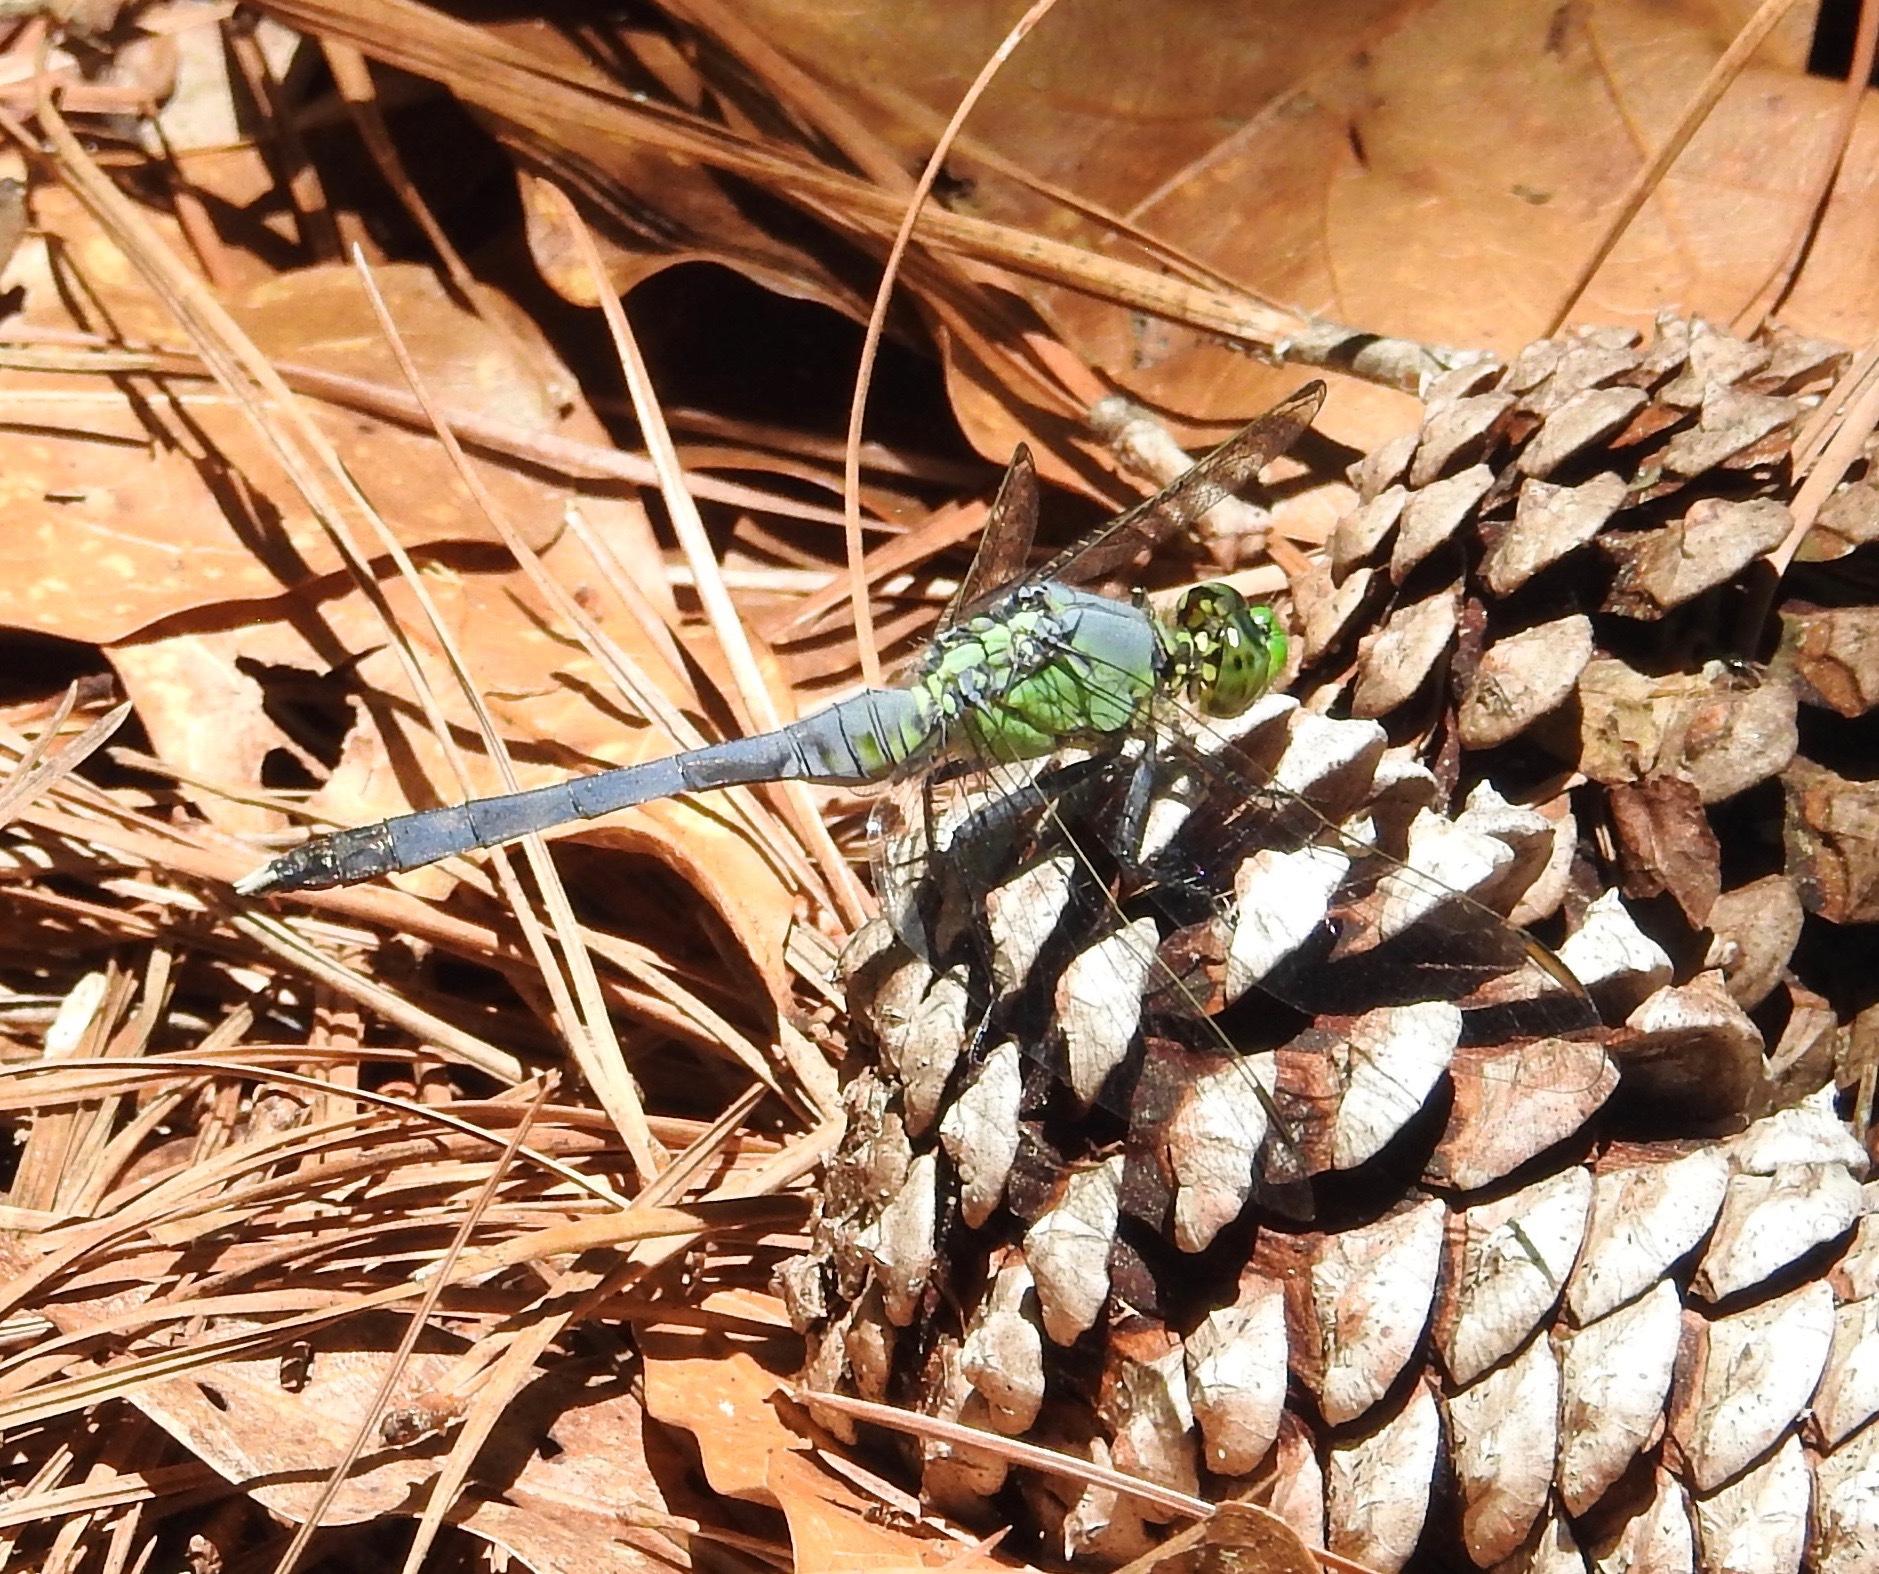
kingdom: Animalia
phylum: Arthropoda
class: Insecta
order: Odonata
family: Libellulidae
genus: Erythemis
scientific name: Erythemis simplicicollis
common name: Eastern pondhawk
